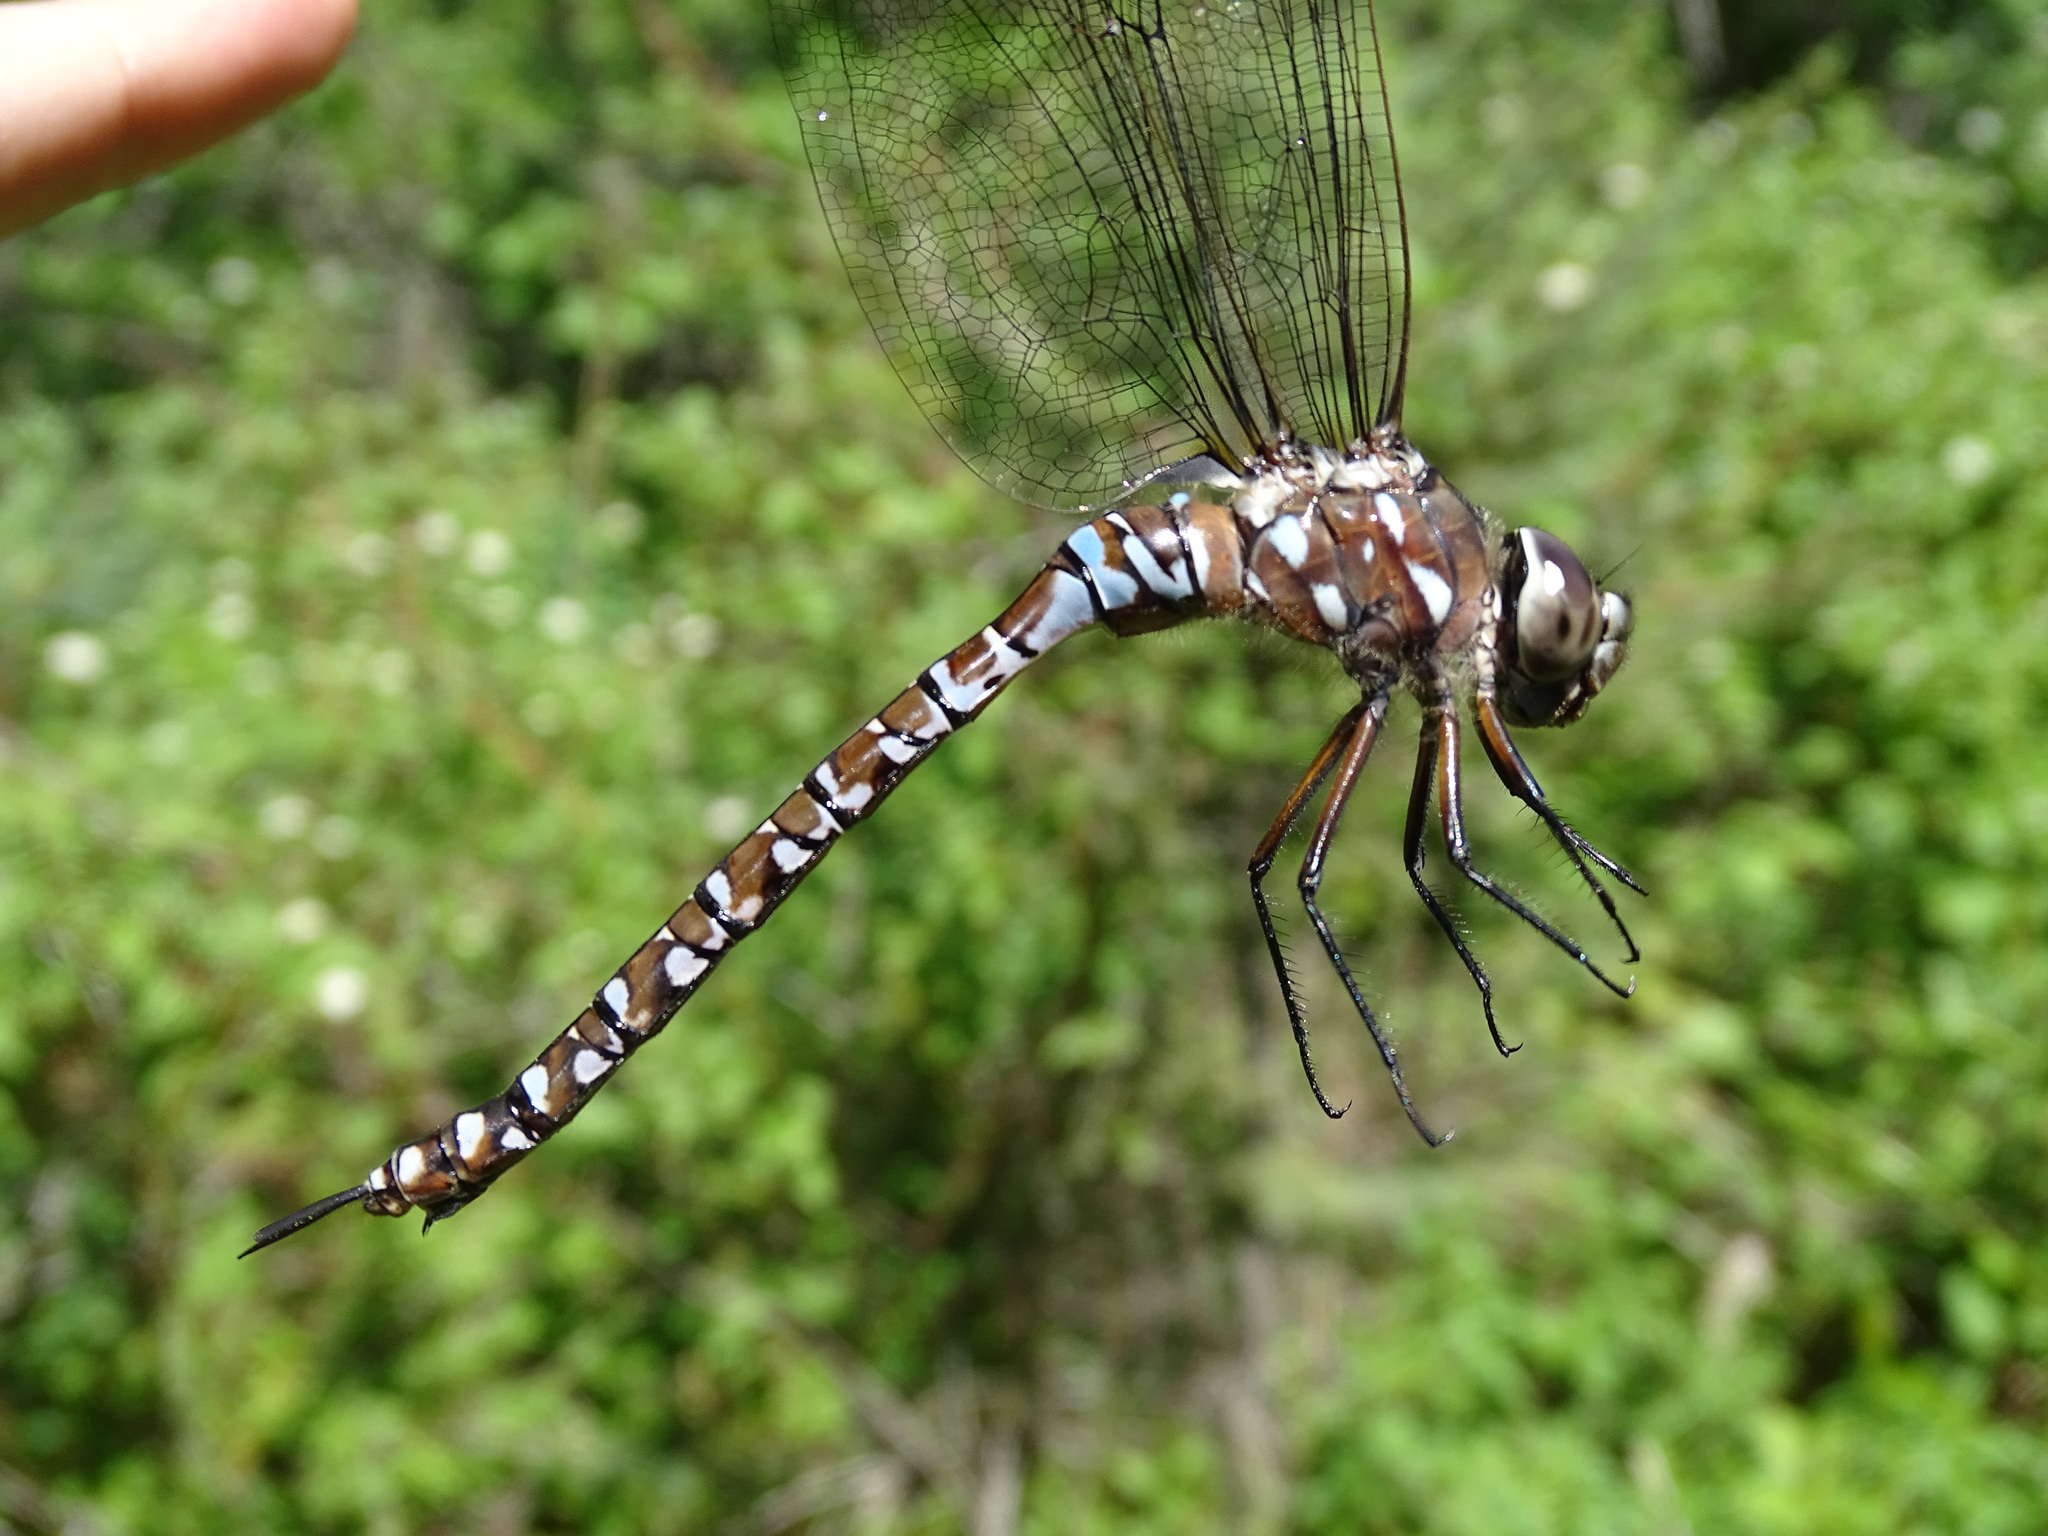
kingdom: Animalia
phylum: Arthropoda
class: Insecta
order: Odonata
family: Aeshnidae
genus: Aeshna
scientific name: Aeshna interrupta
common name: Variable darner
